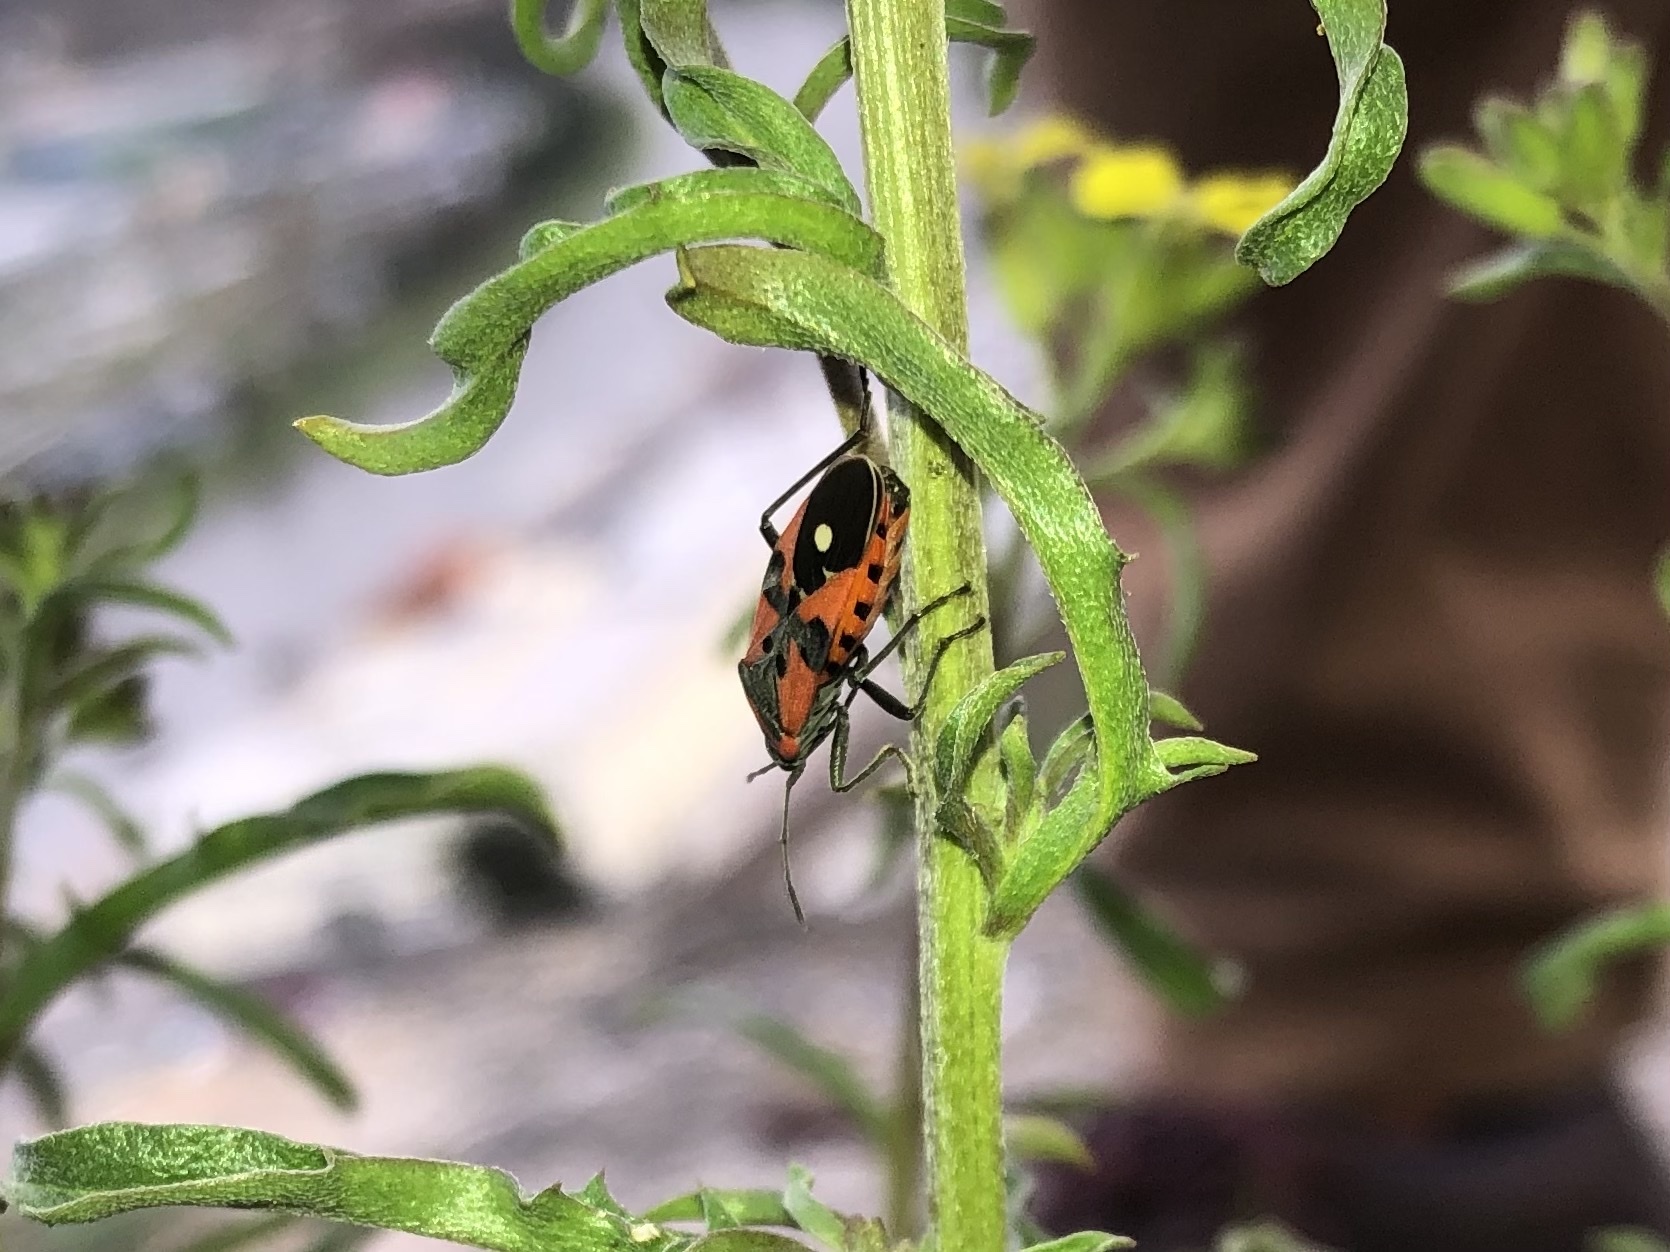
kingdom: Animalia
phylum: Arthropoda
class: Insecta
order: Hemiptera
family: Lygaeidae
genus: Lygaeus
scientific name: Lygaeus equestris
